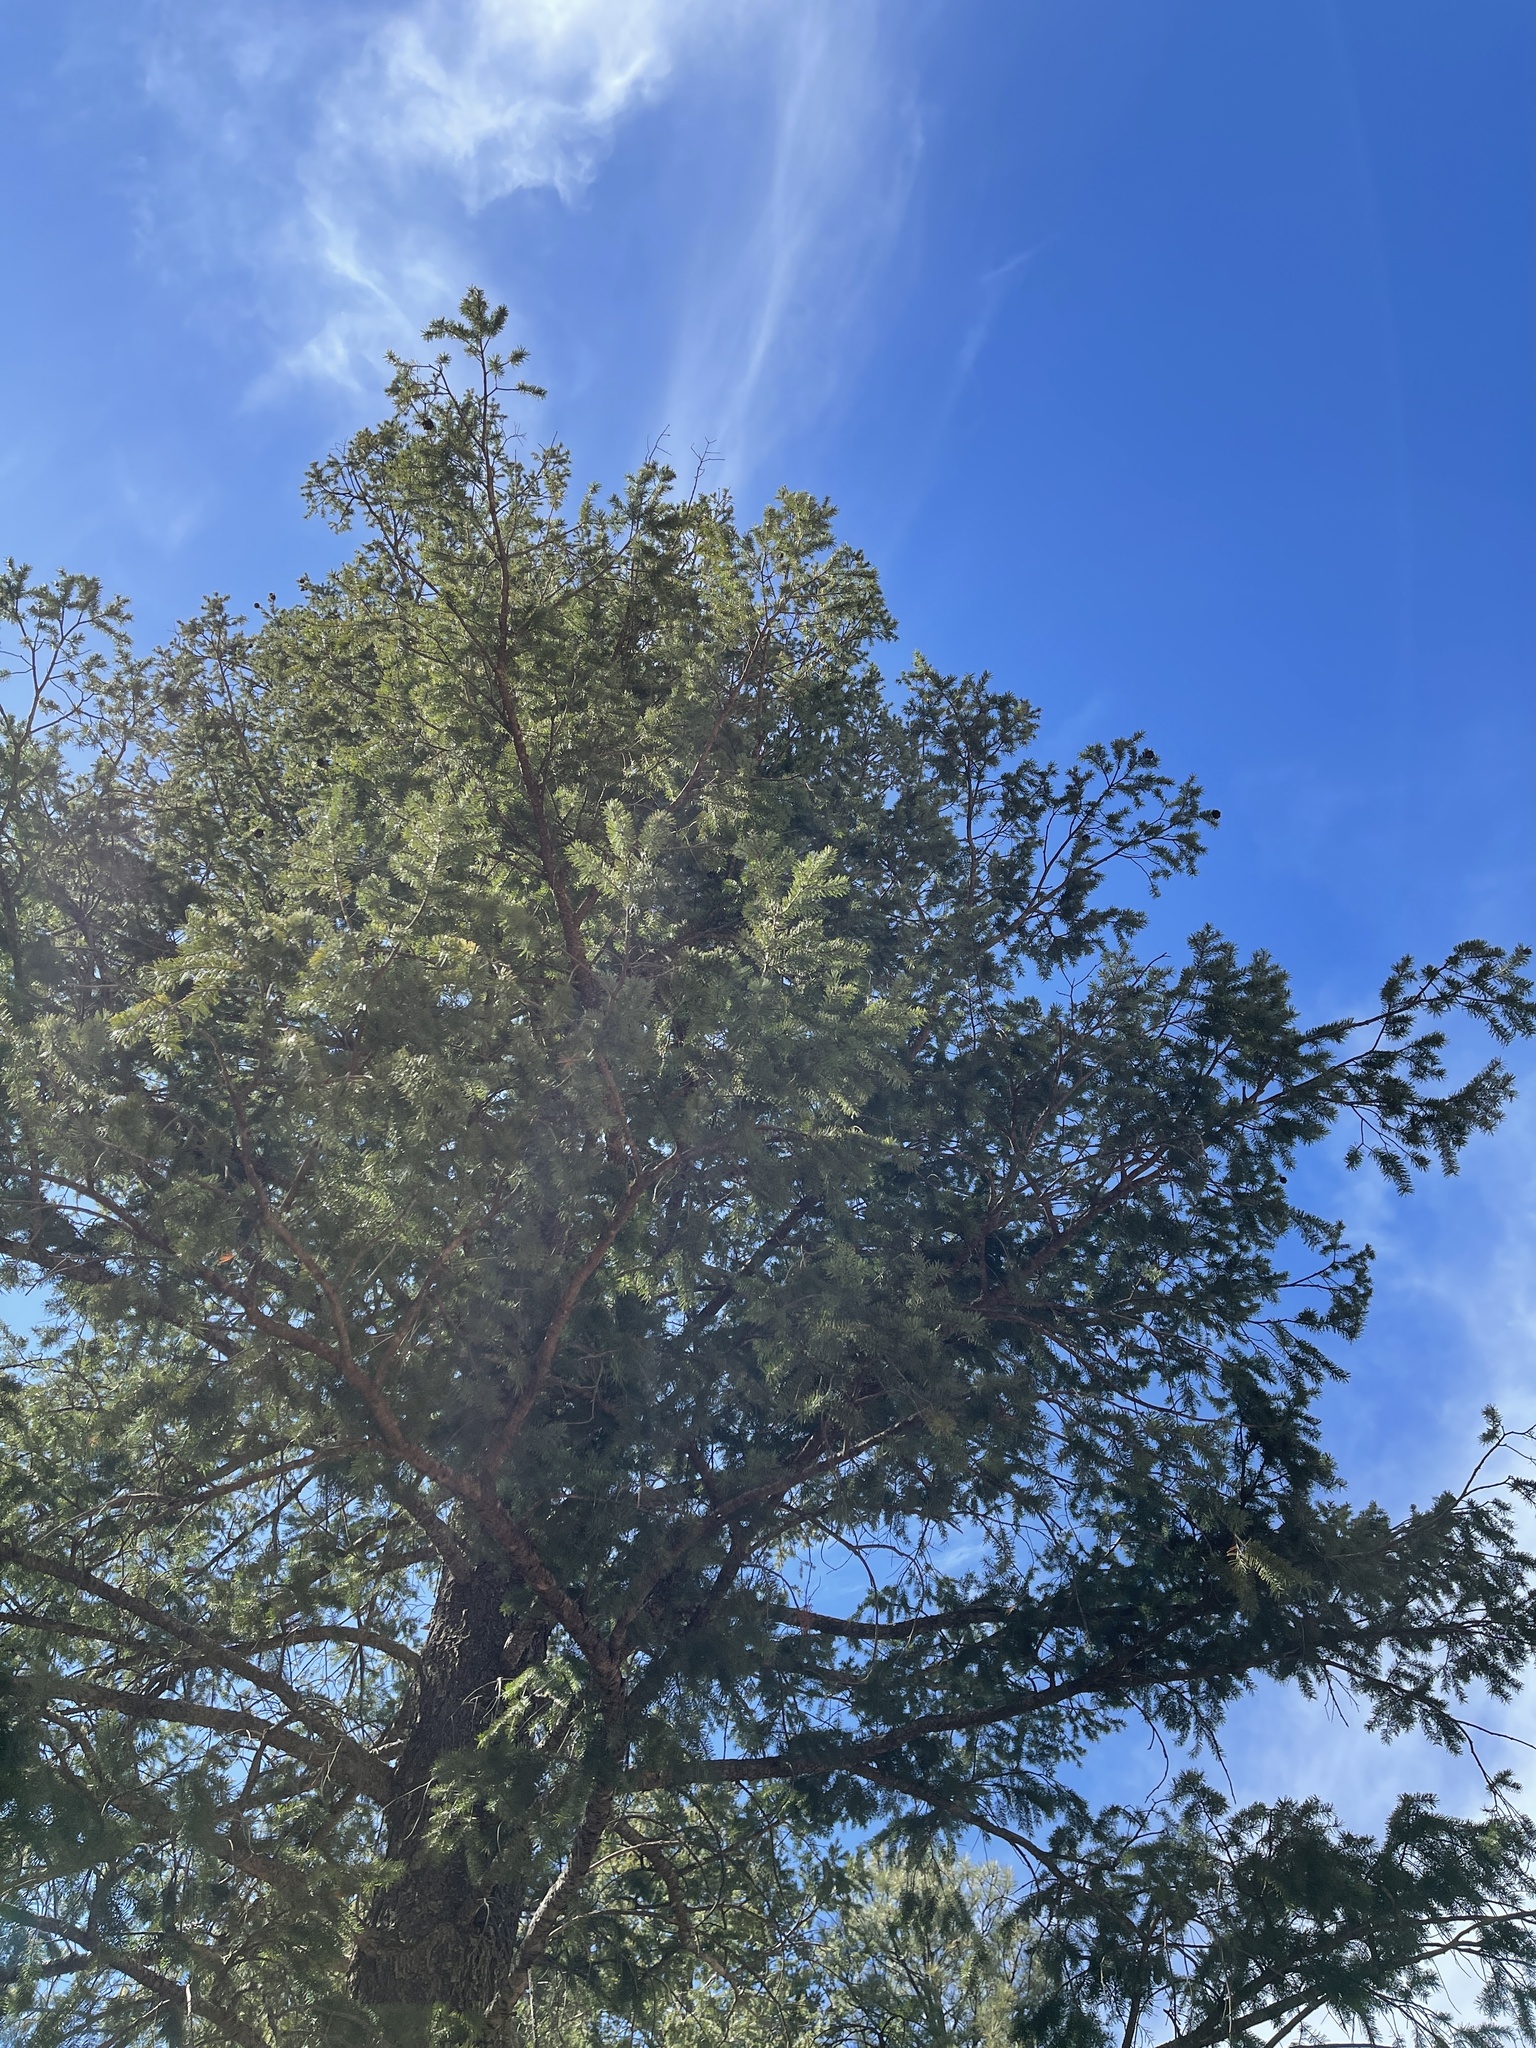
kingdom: Plantae
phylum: Tracheophyta
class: Pinopsida
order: Pinales
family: Pinaceae
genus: Pseudotsuga
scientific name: Pseudotsuga menziesii
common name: Douglas fir
